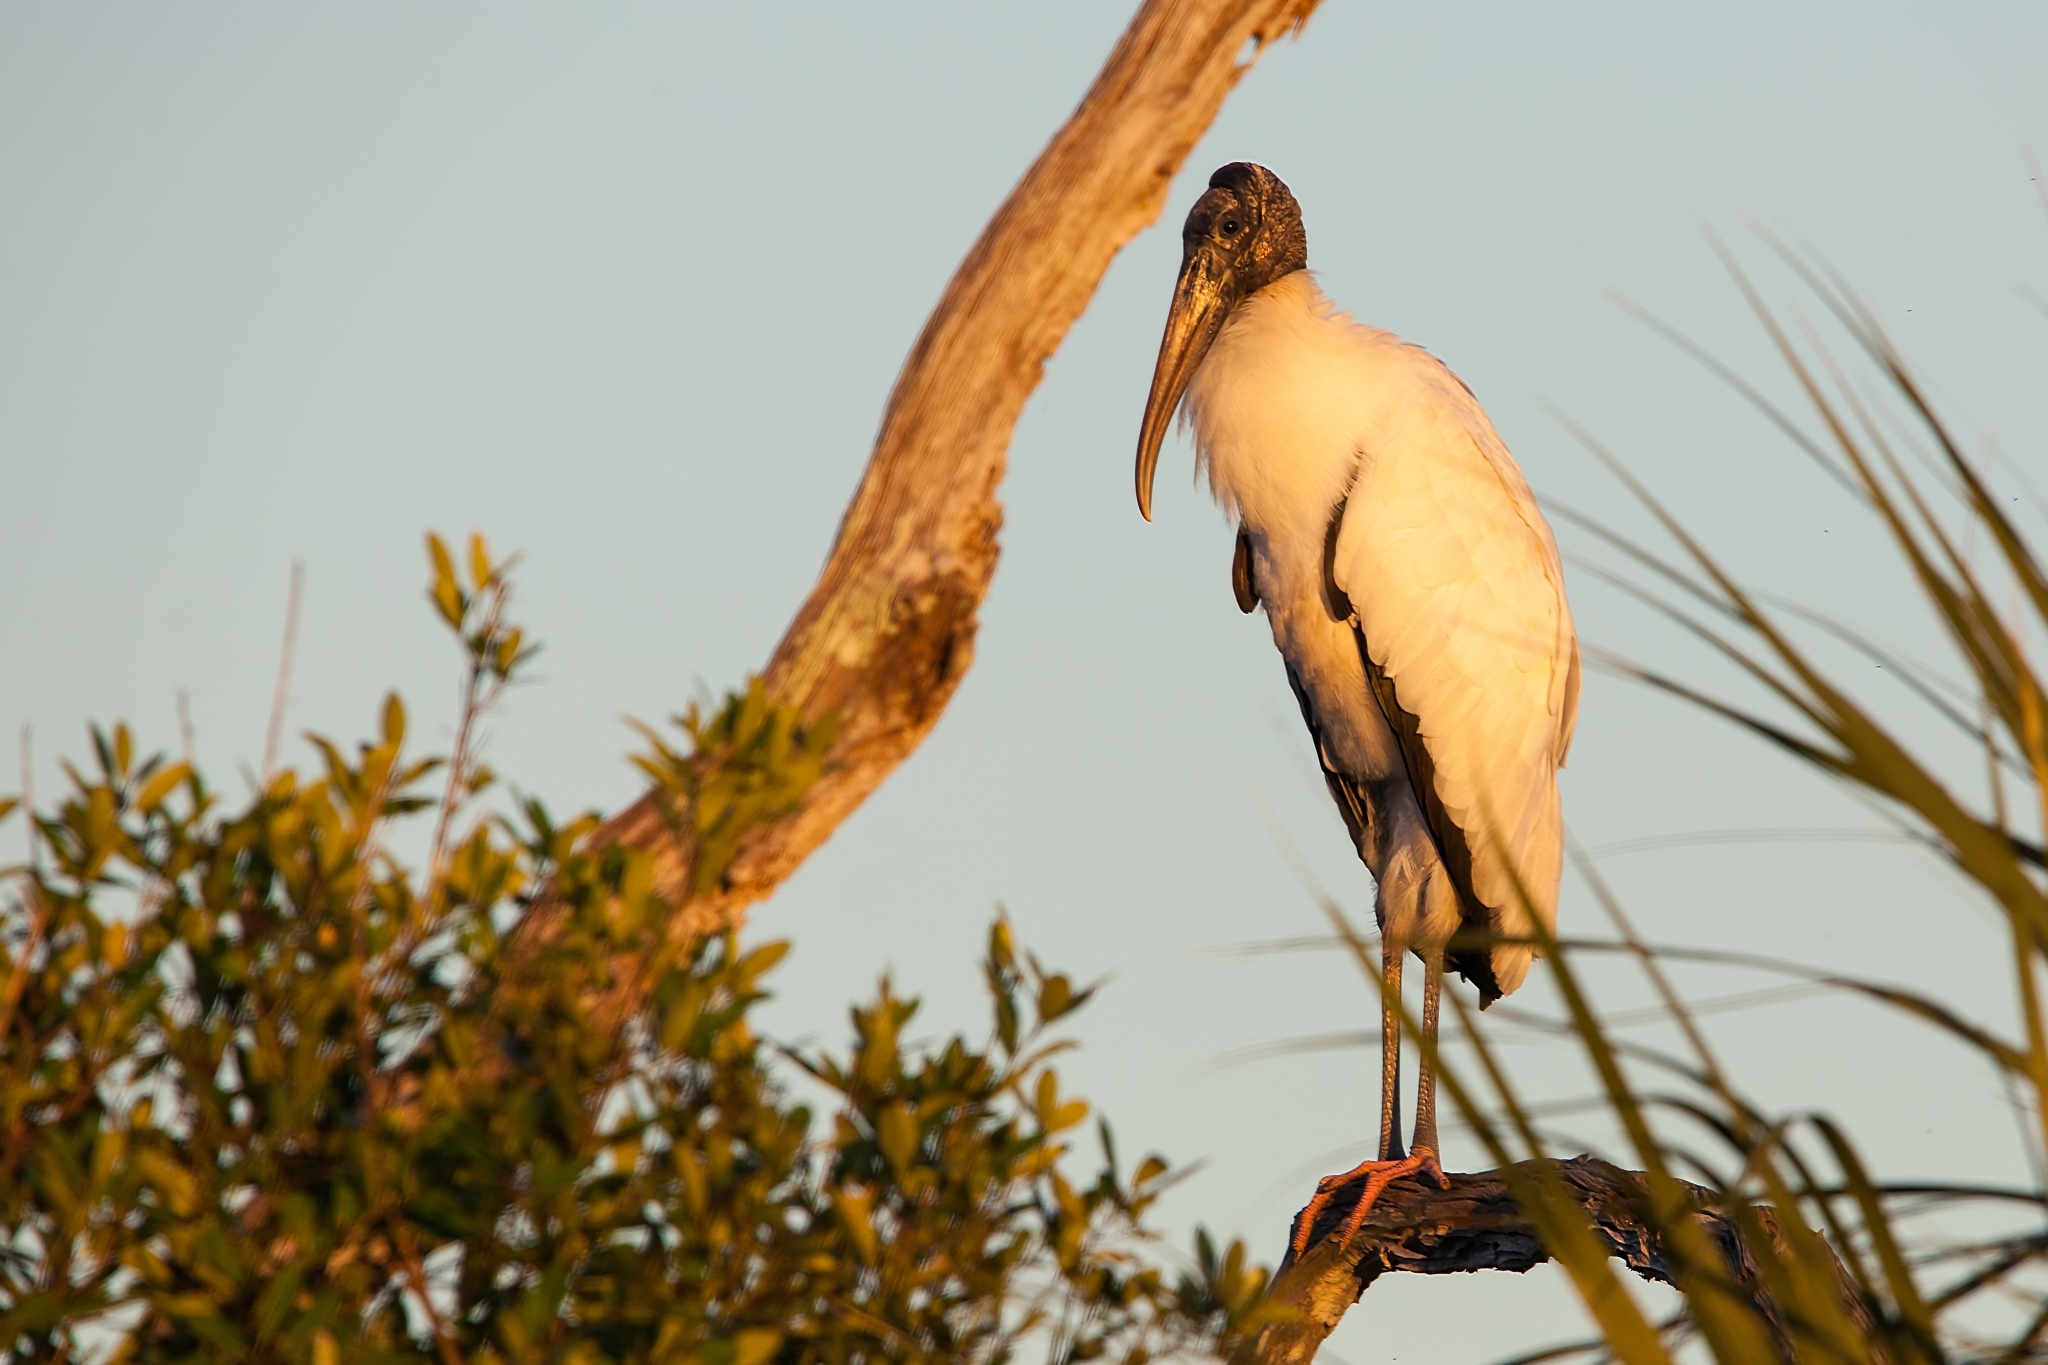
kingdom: Animalia
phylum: Chordata
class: Aves
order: Ciconiiformes
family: Ciconiidae
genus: Mycteria
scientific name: Mycteria americana
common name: Wood stork
